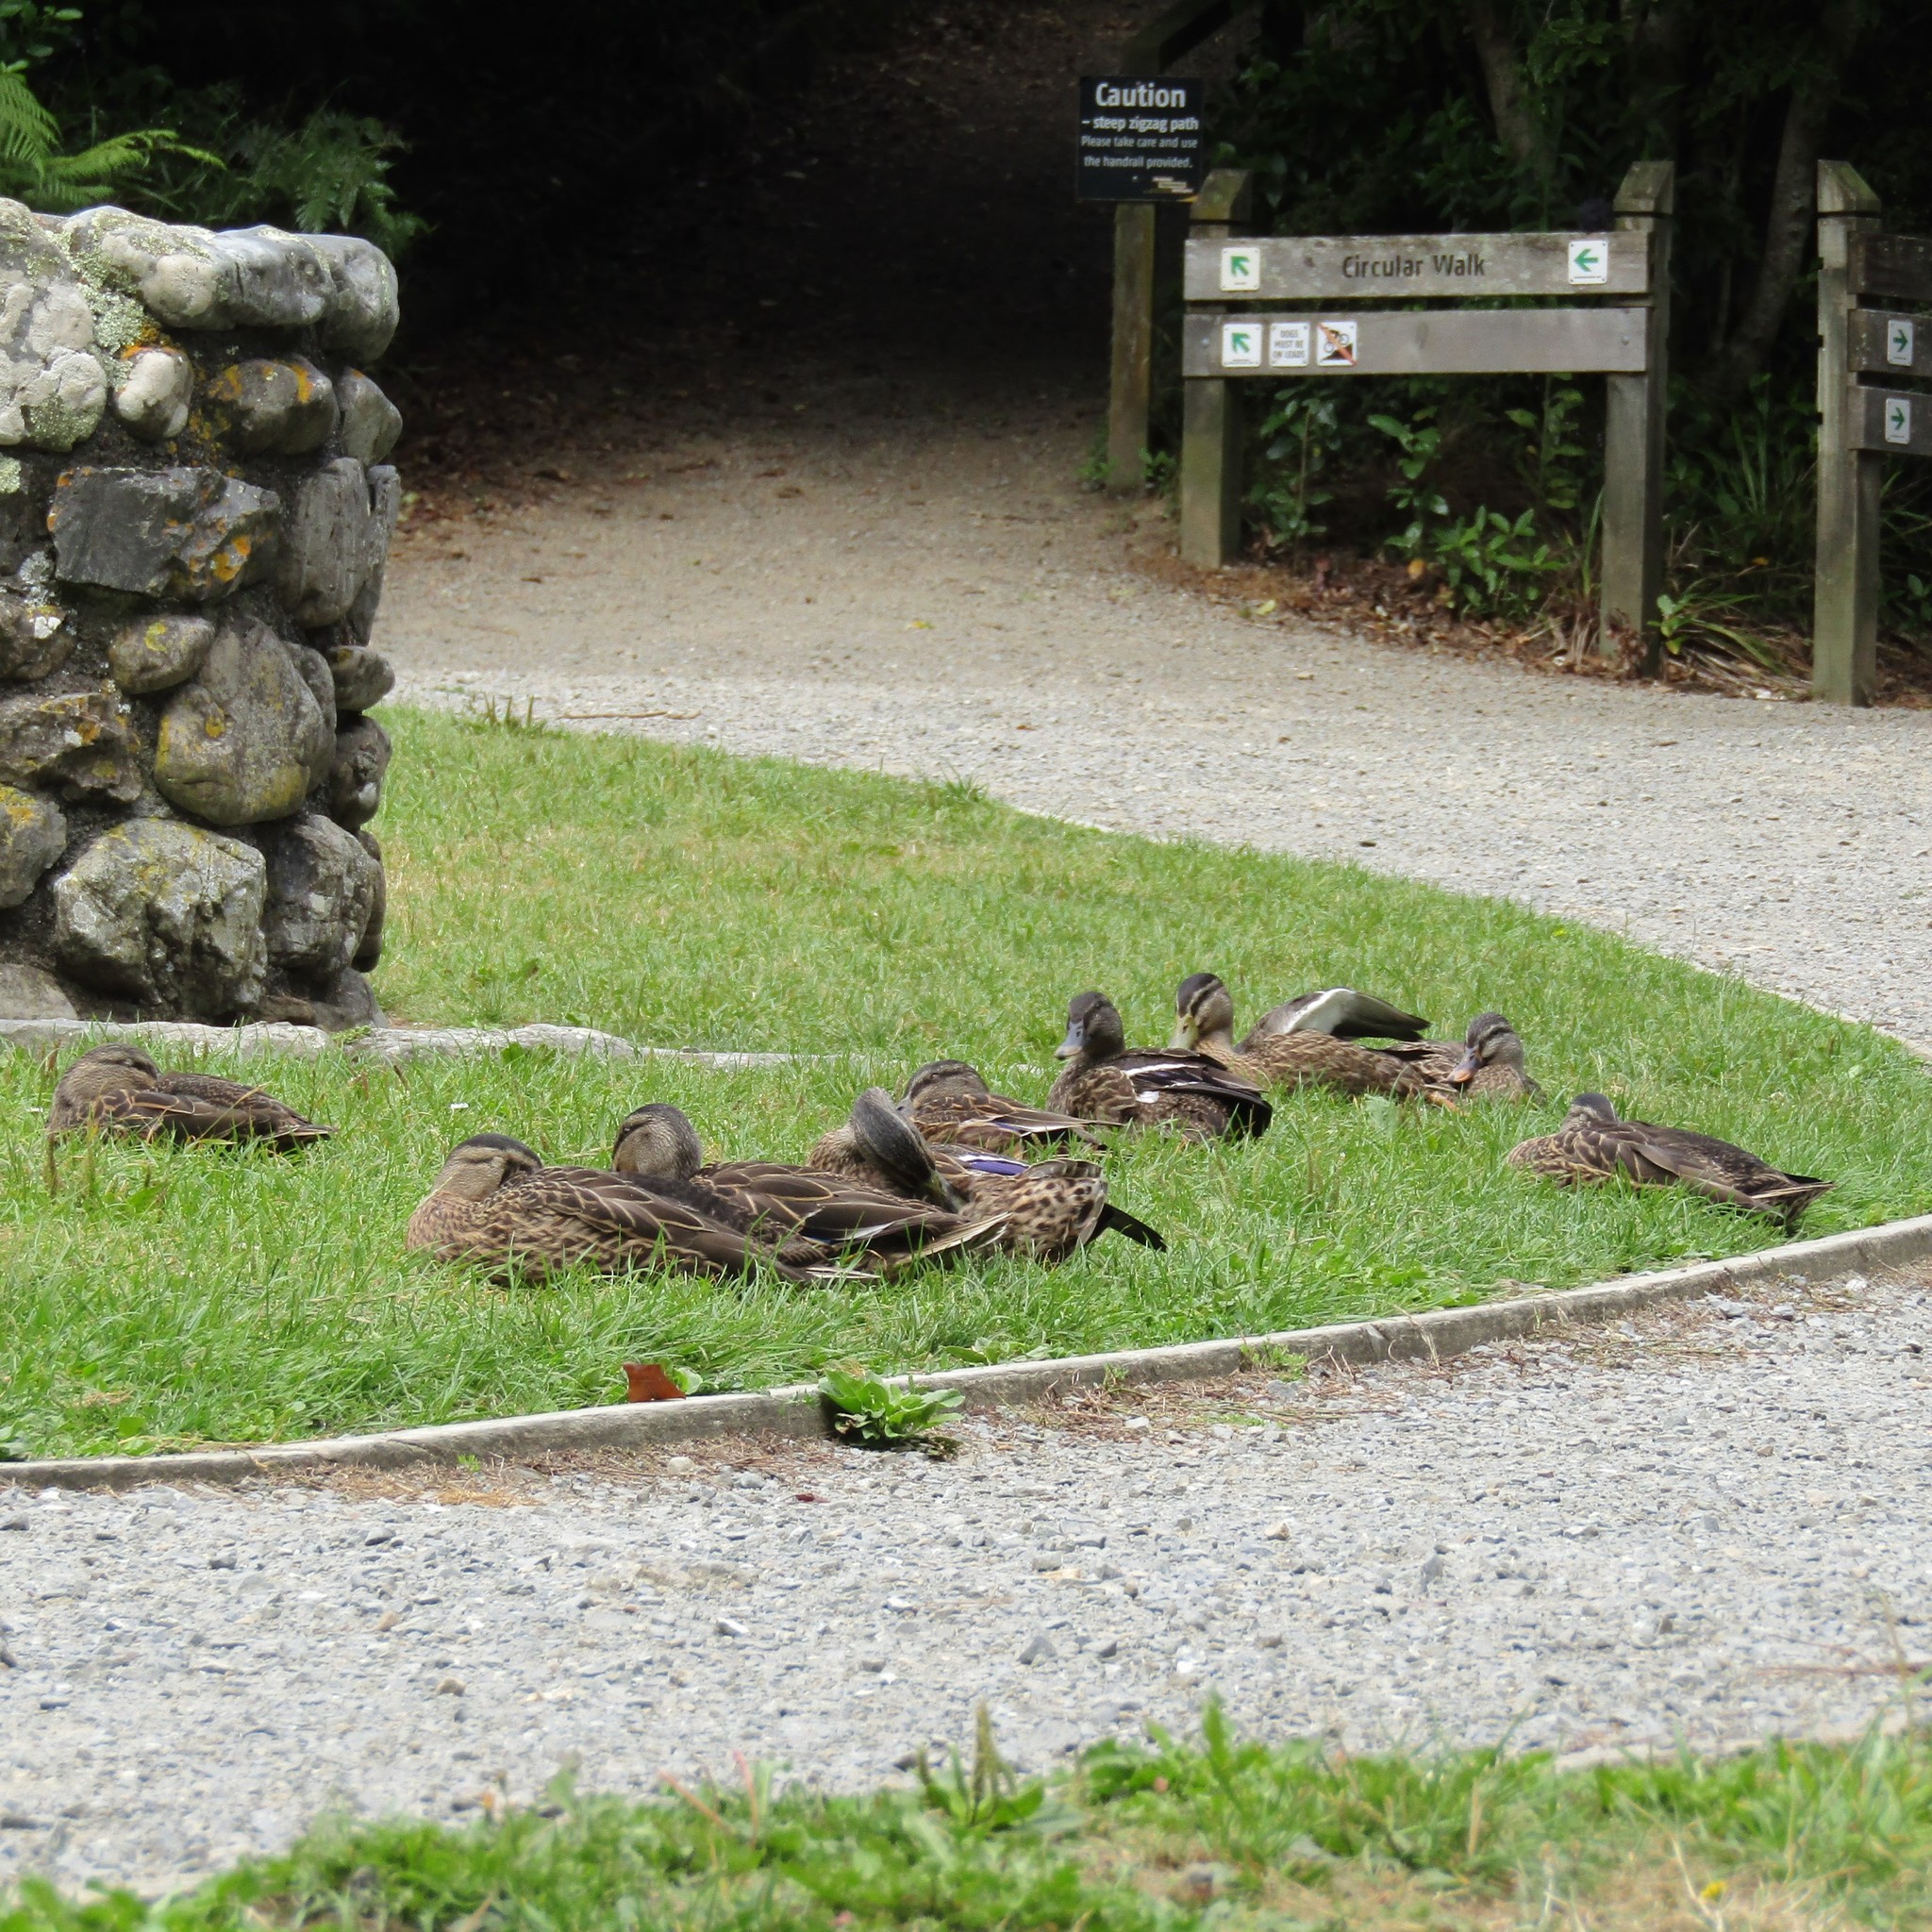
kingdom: Animalia
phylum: Chordata
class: Aves
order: Anseriformes
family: Anatidae
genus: Anas
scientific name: Anas
